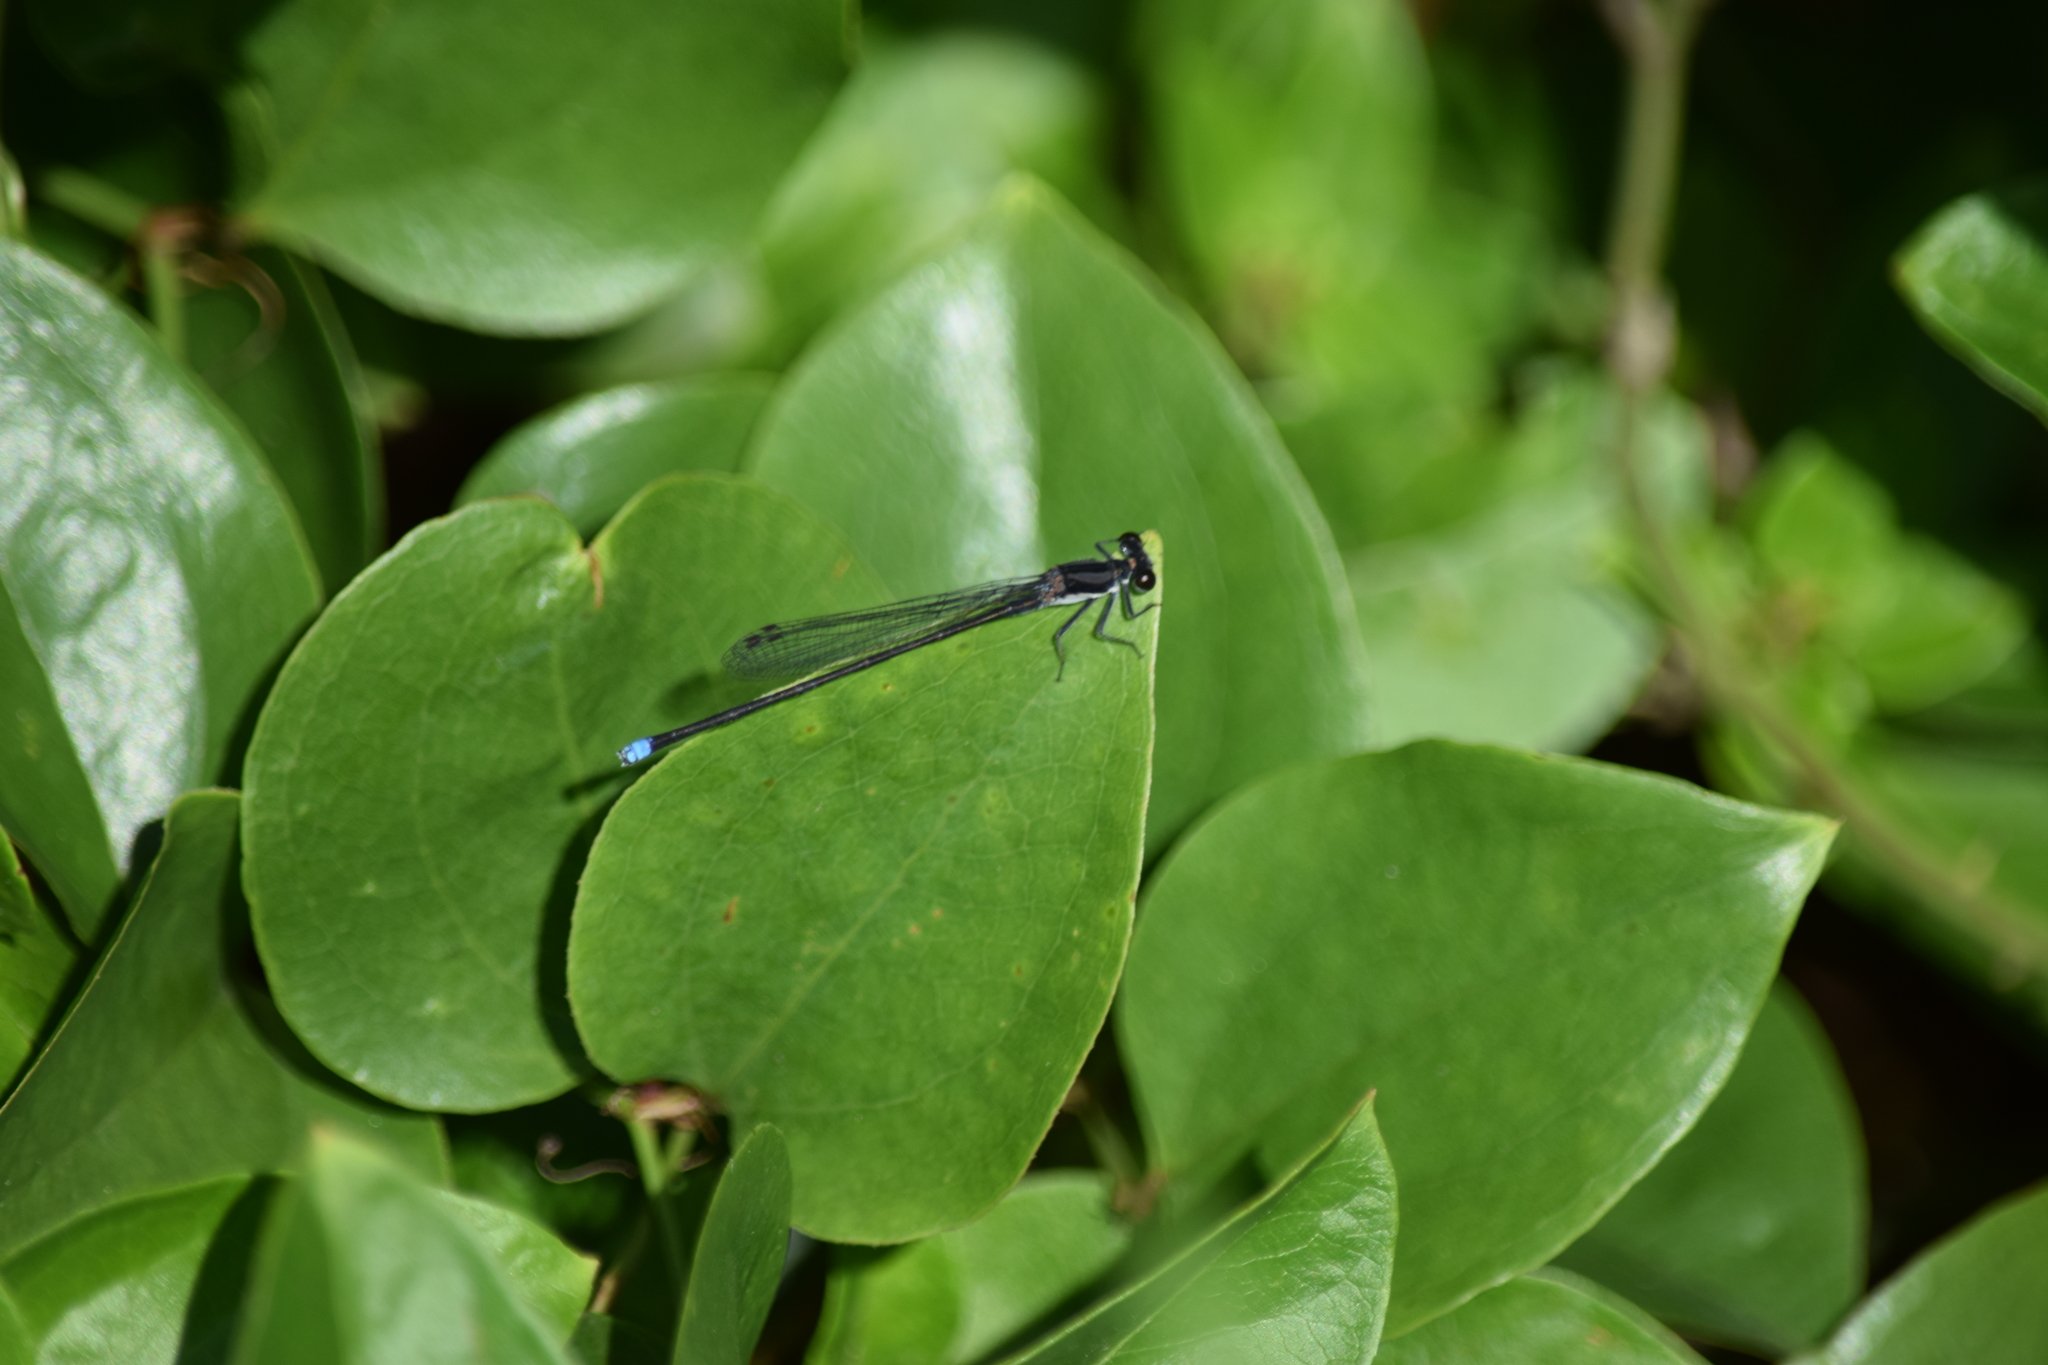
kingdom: Animalia
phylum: Arthropoda
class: Insecta
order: Odonata
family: Coenagrionidae
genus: Argia
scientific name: Argia tibialis
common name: Blue-tipped dancer
